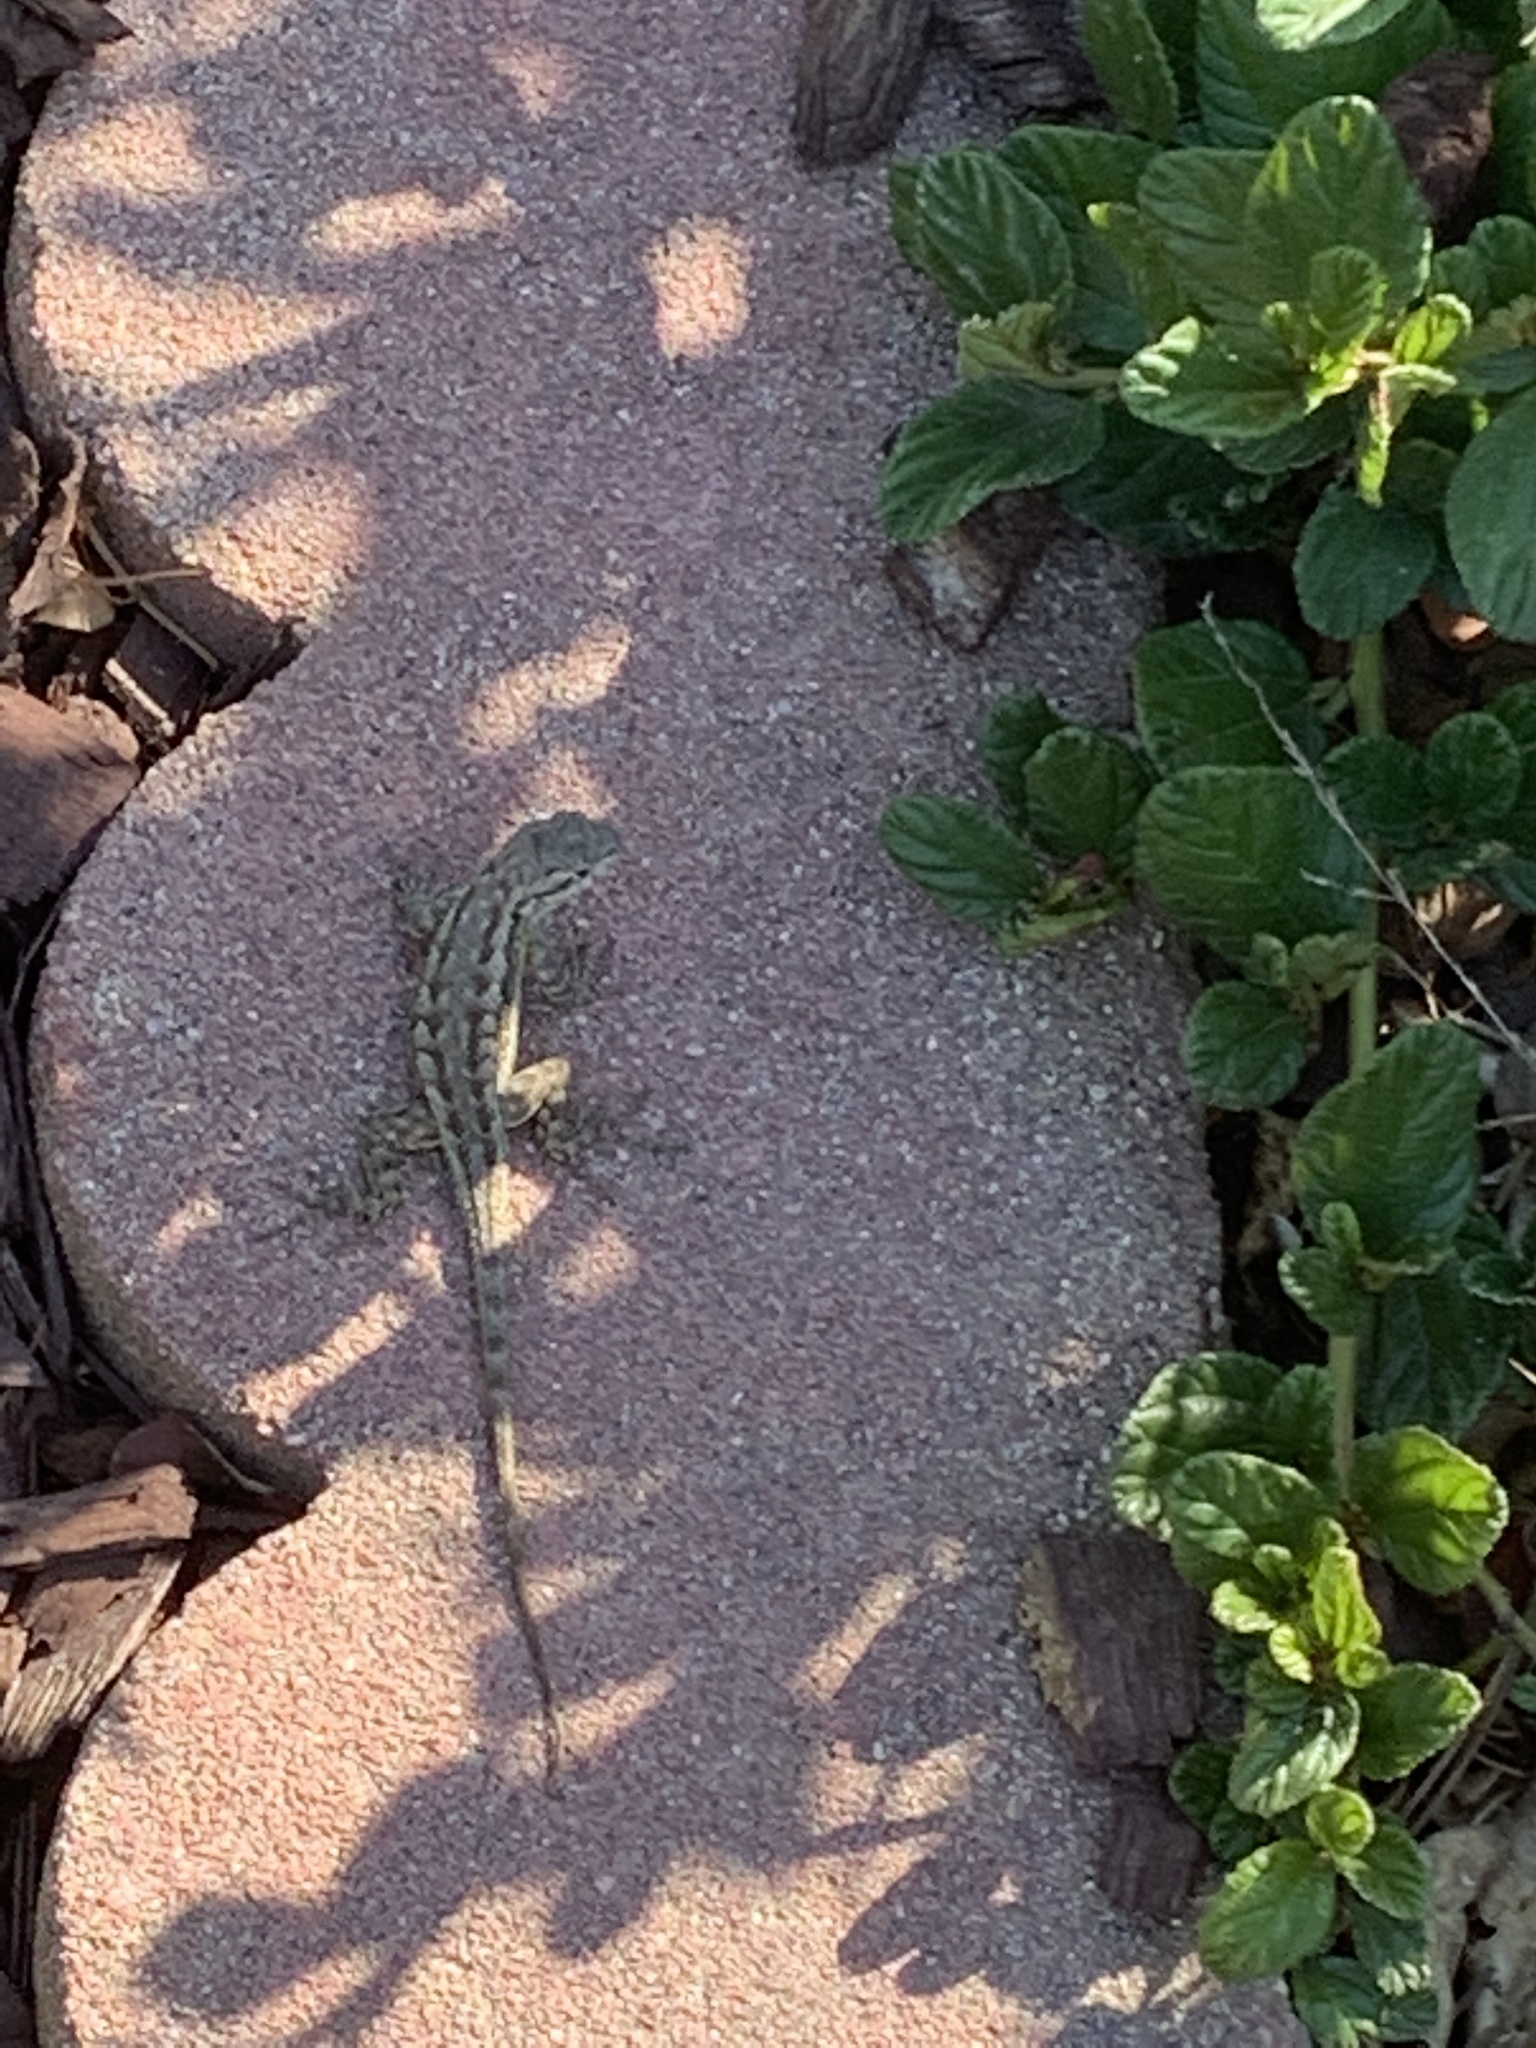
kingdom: Animalia
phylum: Chordata
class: Squamata
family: Phrynosomatidae
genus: Sceloporus
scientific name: Sceloporus occidentalis
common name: Western fence lizard
